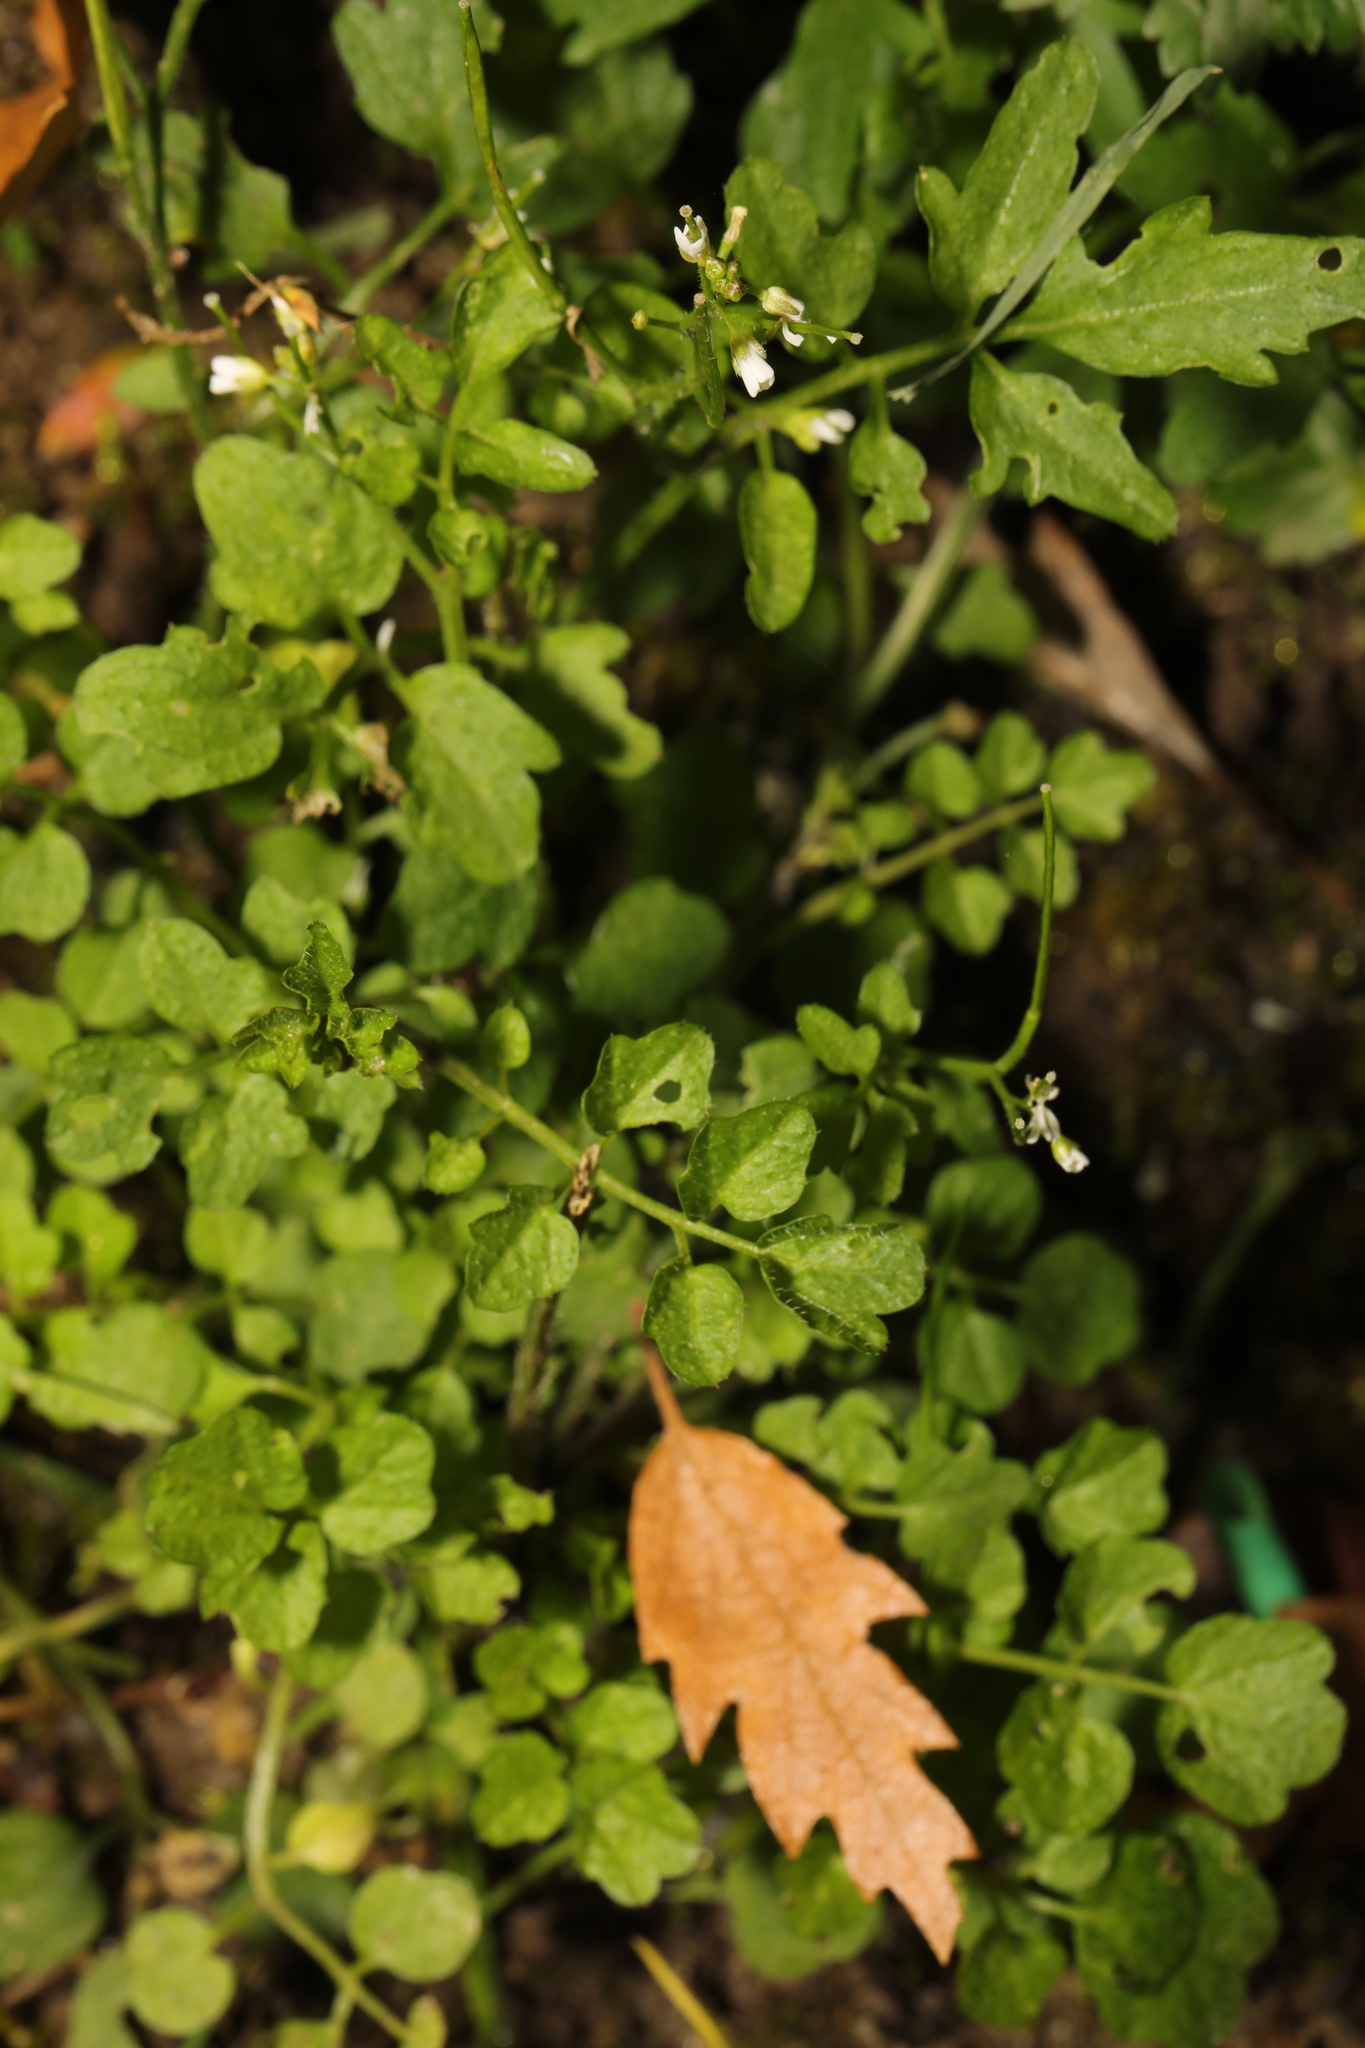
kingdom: Plantae
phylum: Tracheophyta
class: Magnoliopsida
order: Brassicales
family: Brassicaceae
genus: Cardamine
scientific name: Cardamine flexuosa
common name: Woodland bittercress
